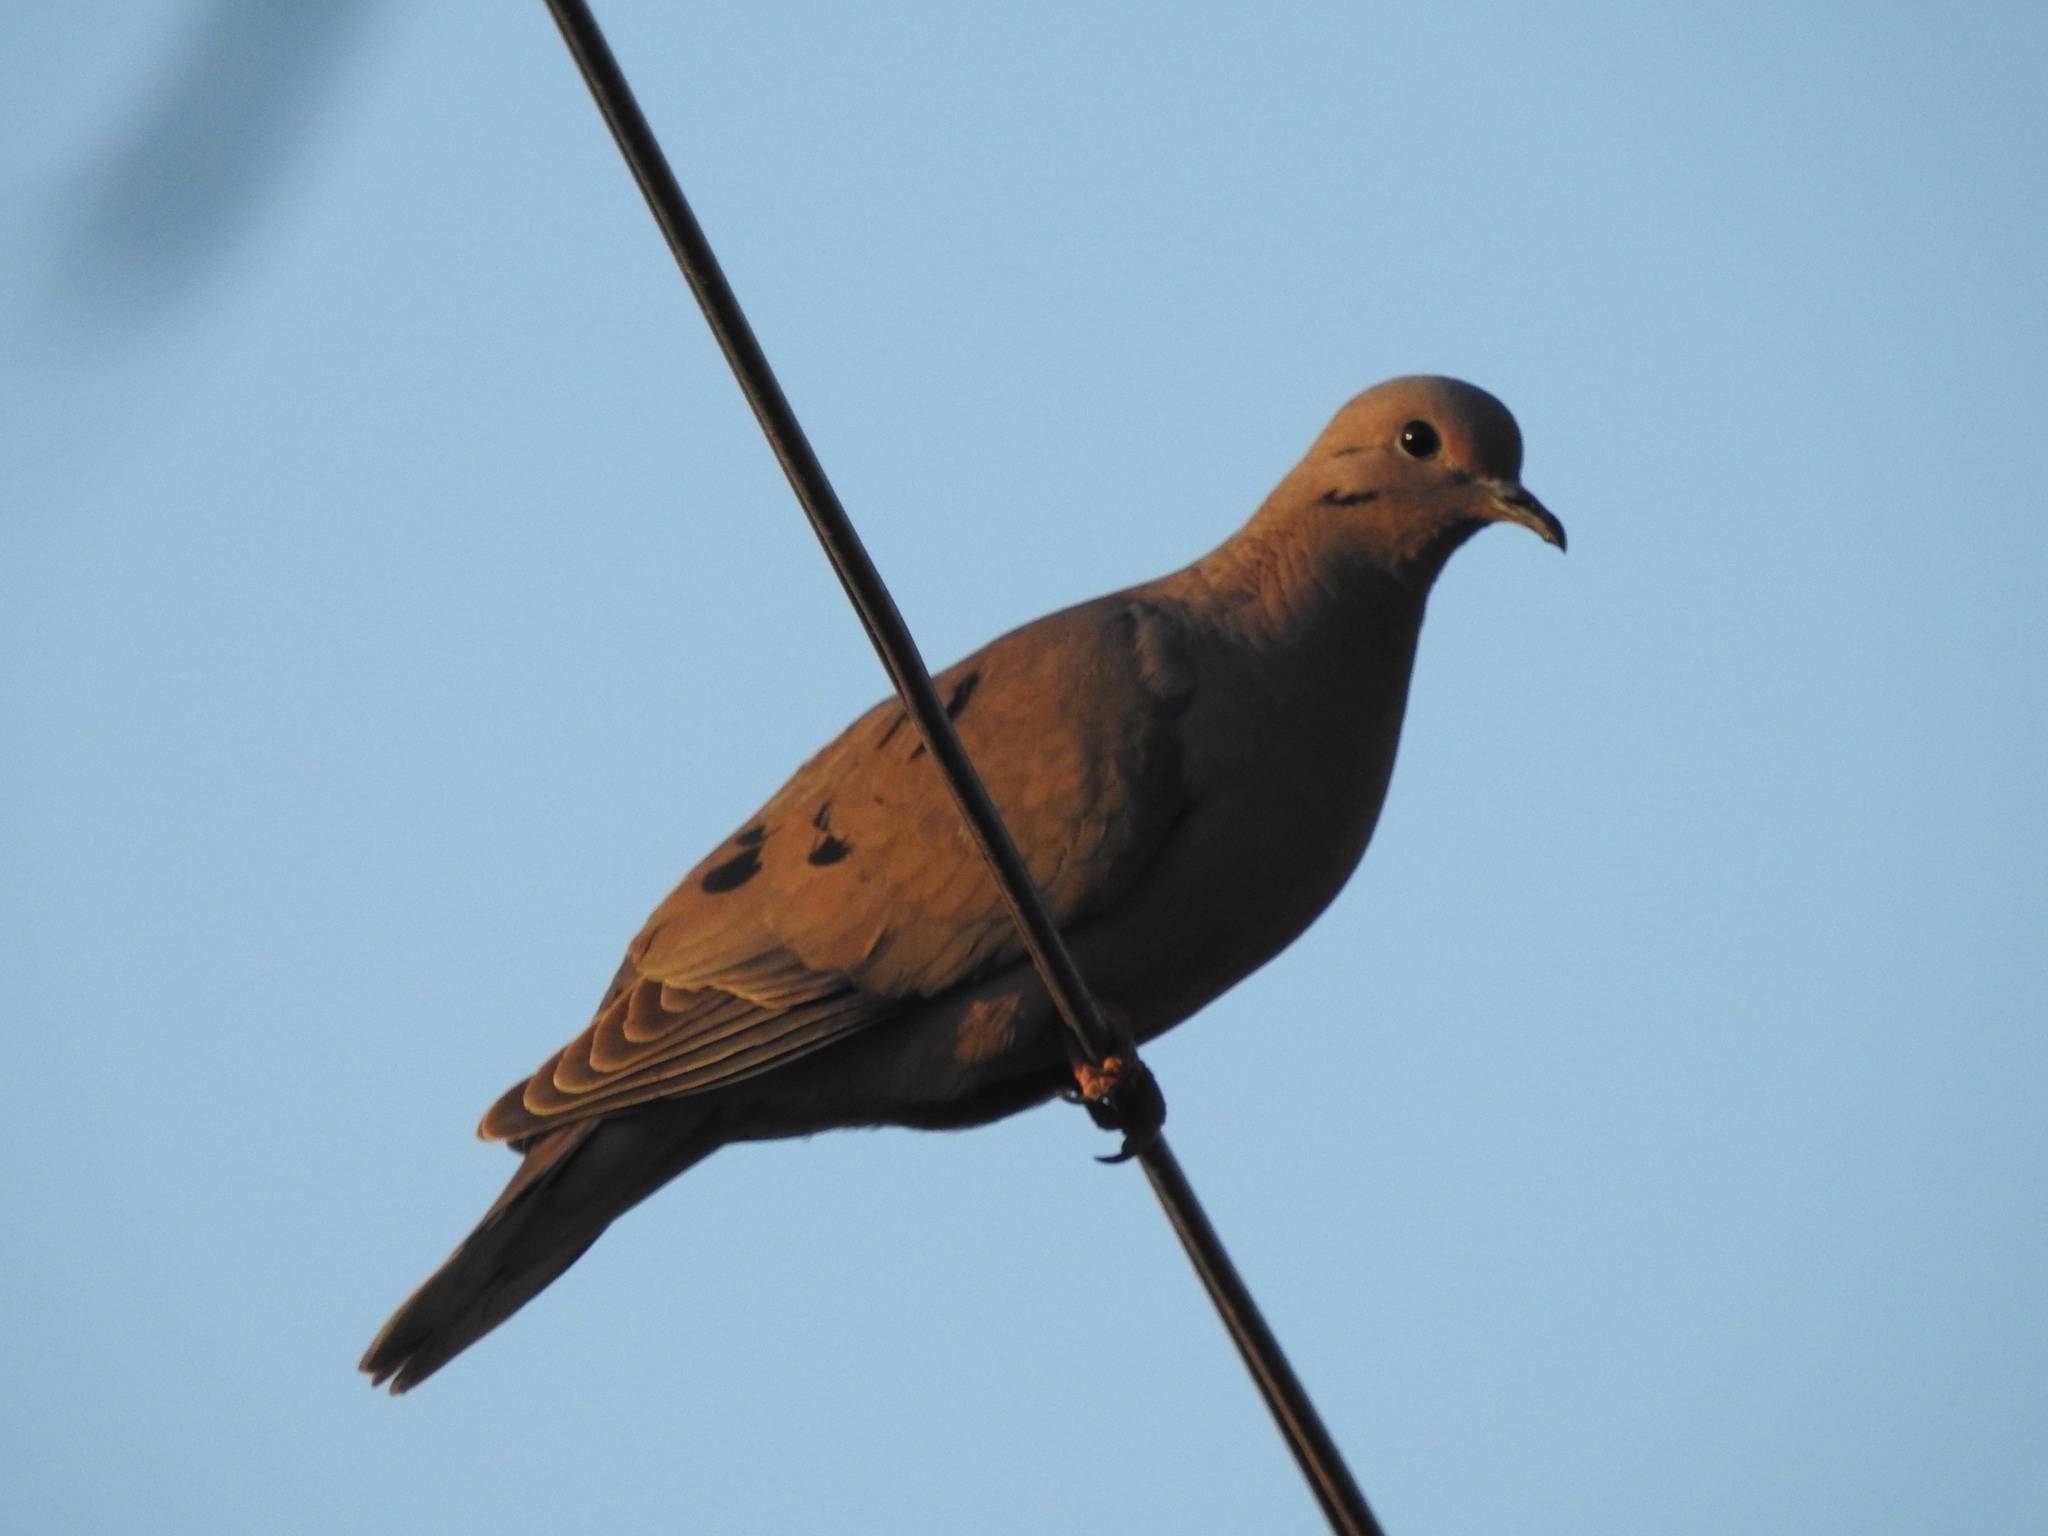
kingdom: Animalia
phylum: Chordata
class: Aves
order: Columbiformes
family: Columbidae
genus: Zenaida
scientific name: Zenaida auriculata
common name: Eared dove
